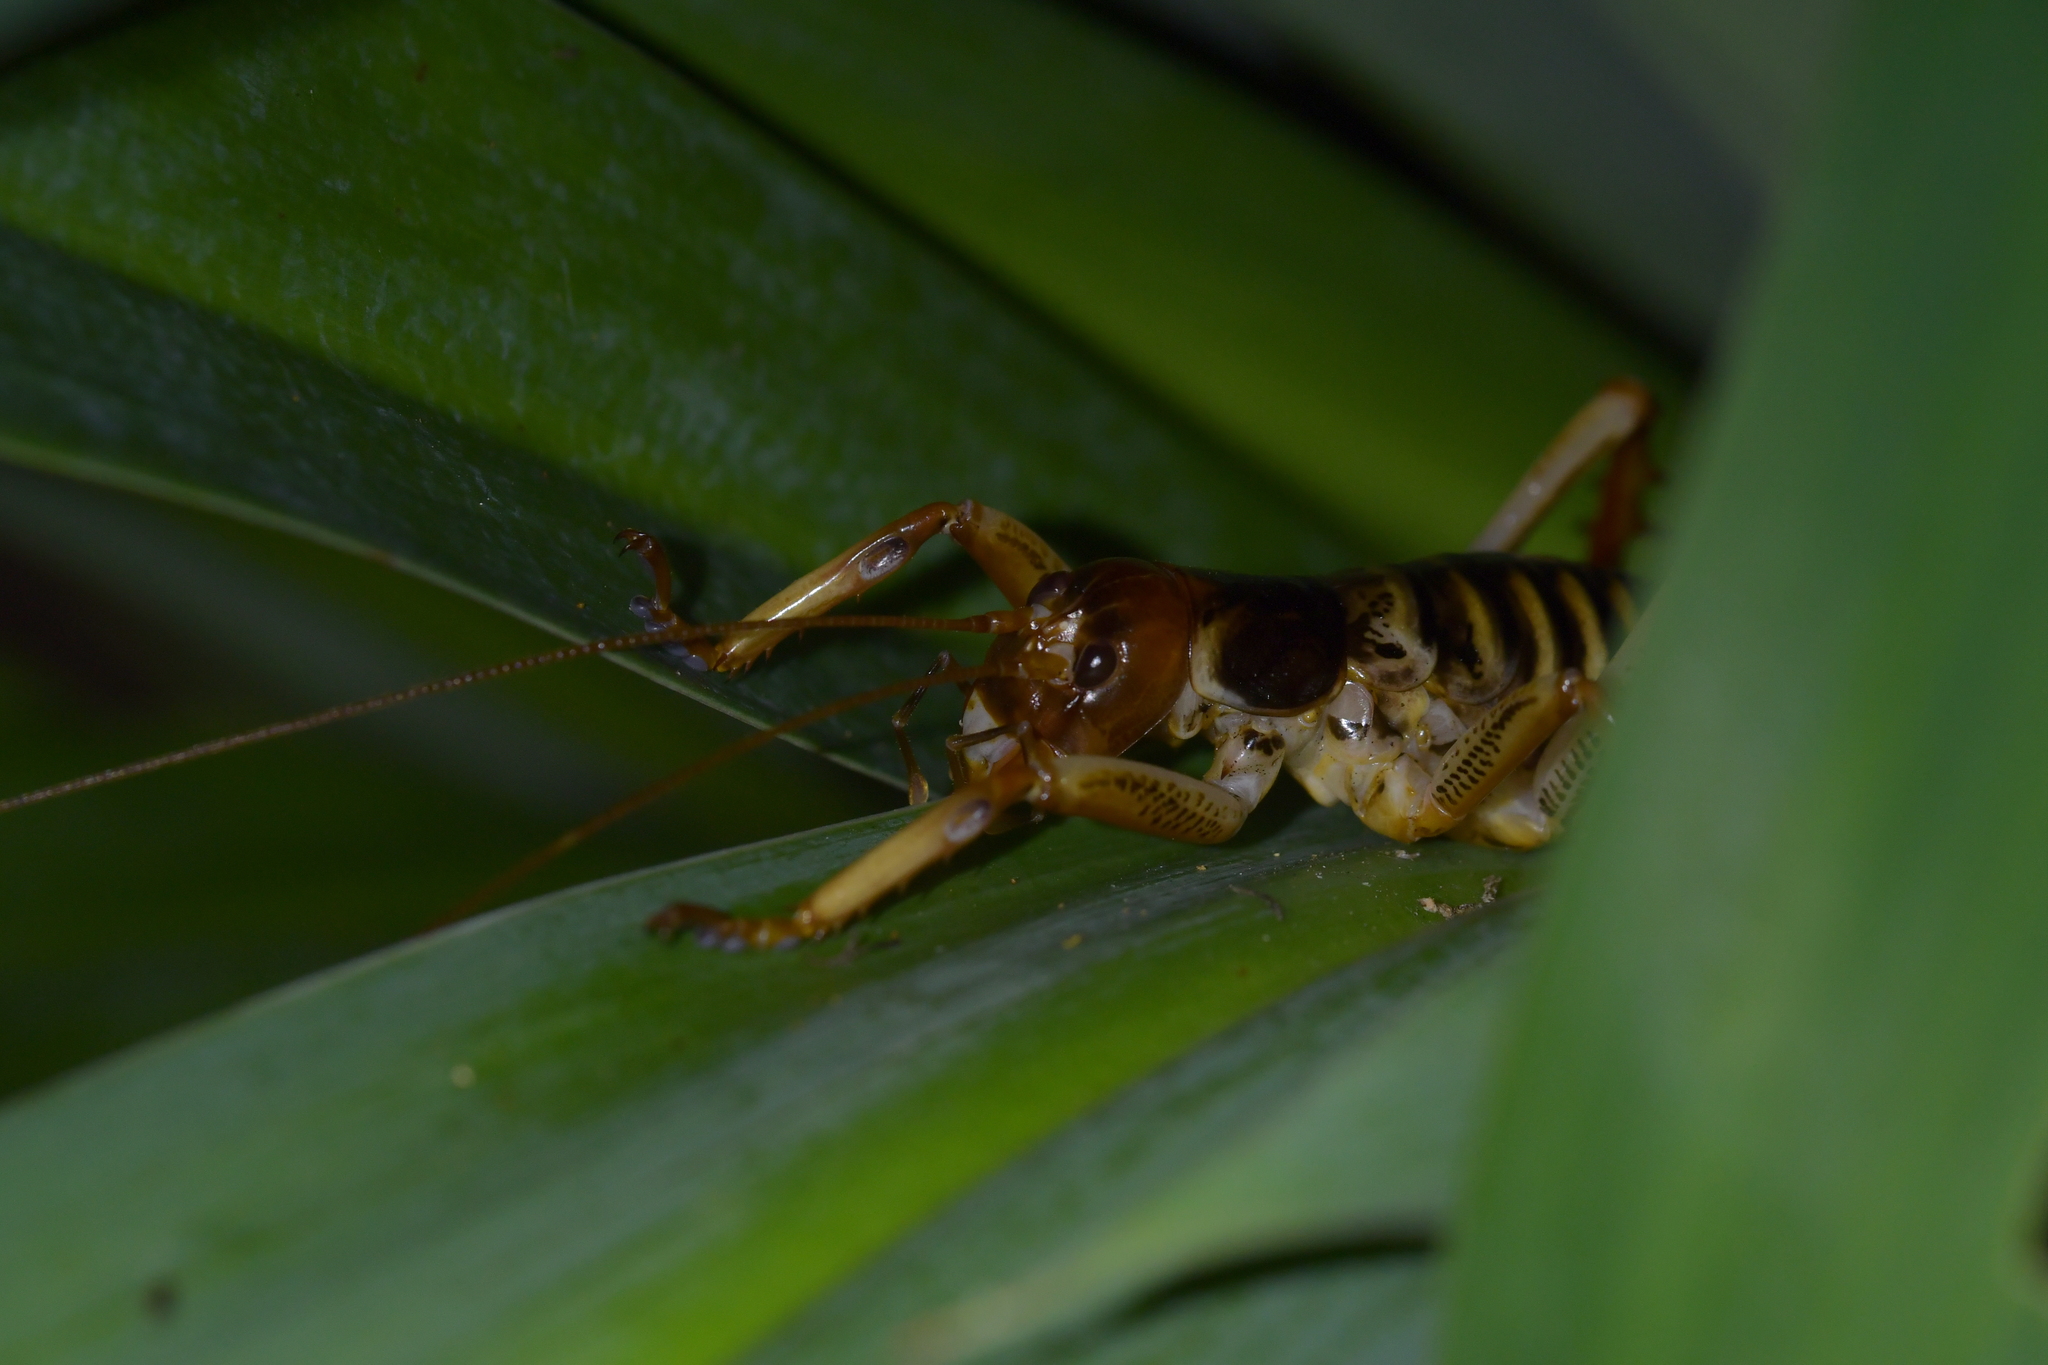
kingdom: Animalia
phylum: Arthropoda
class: Insecta
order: Orthoptera
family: Anostostomatidae
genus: Hemideina
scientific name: Hemideina crassidens
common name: Wellington tree weta
